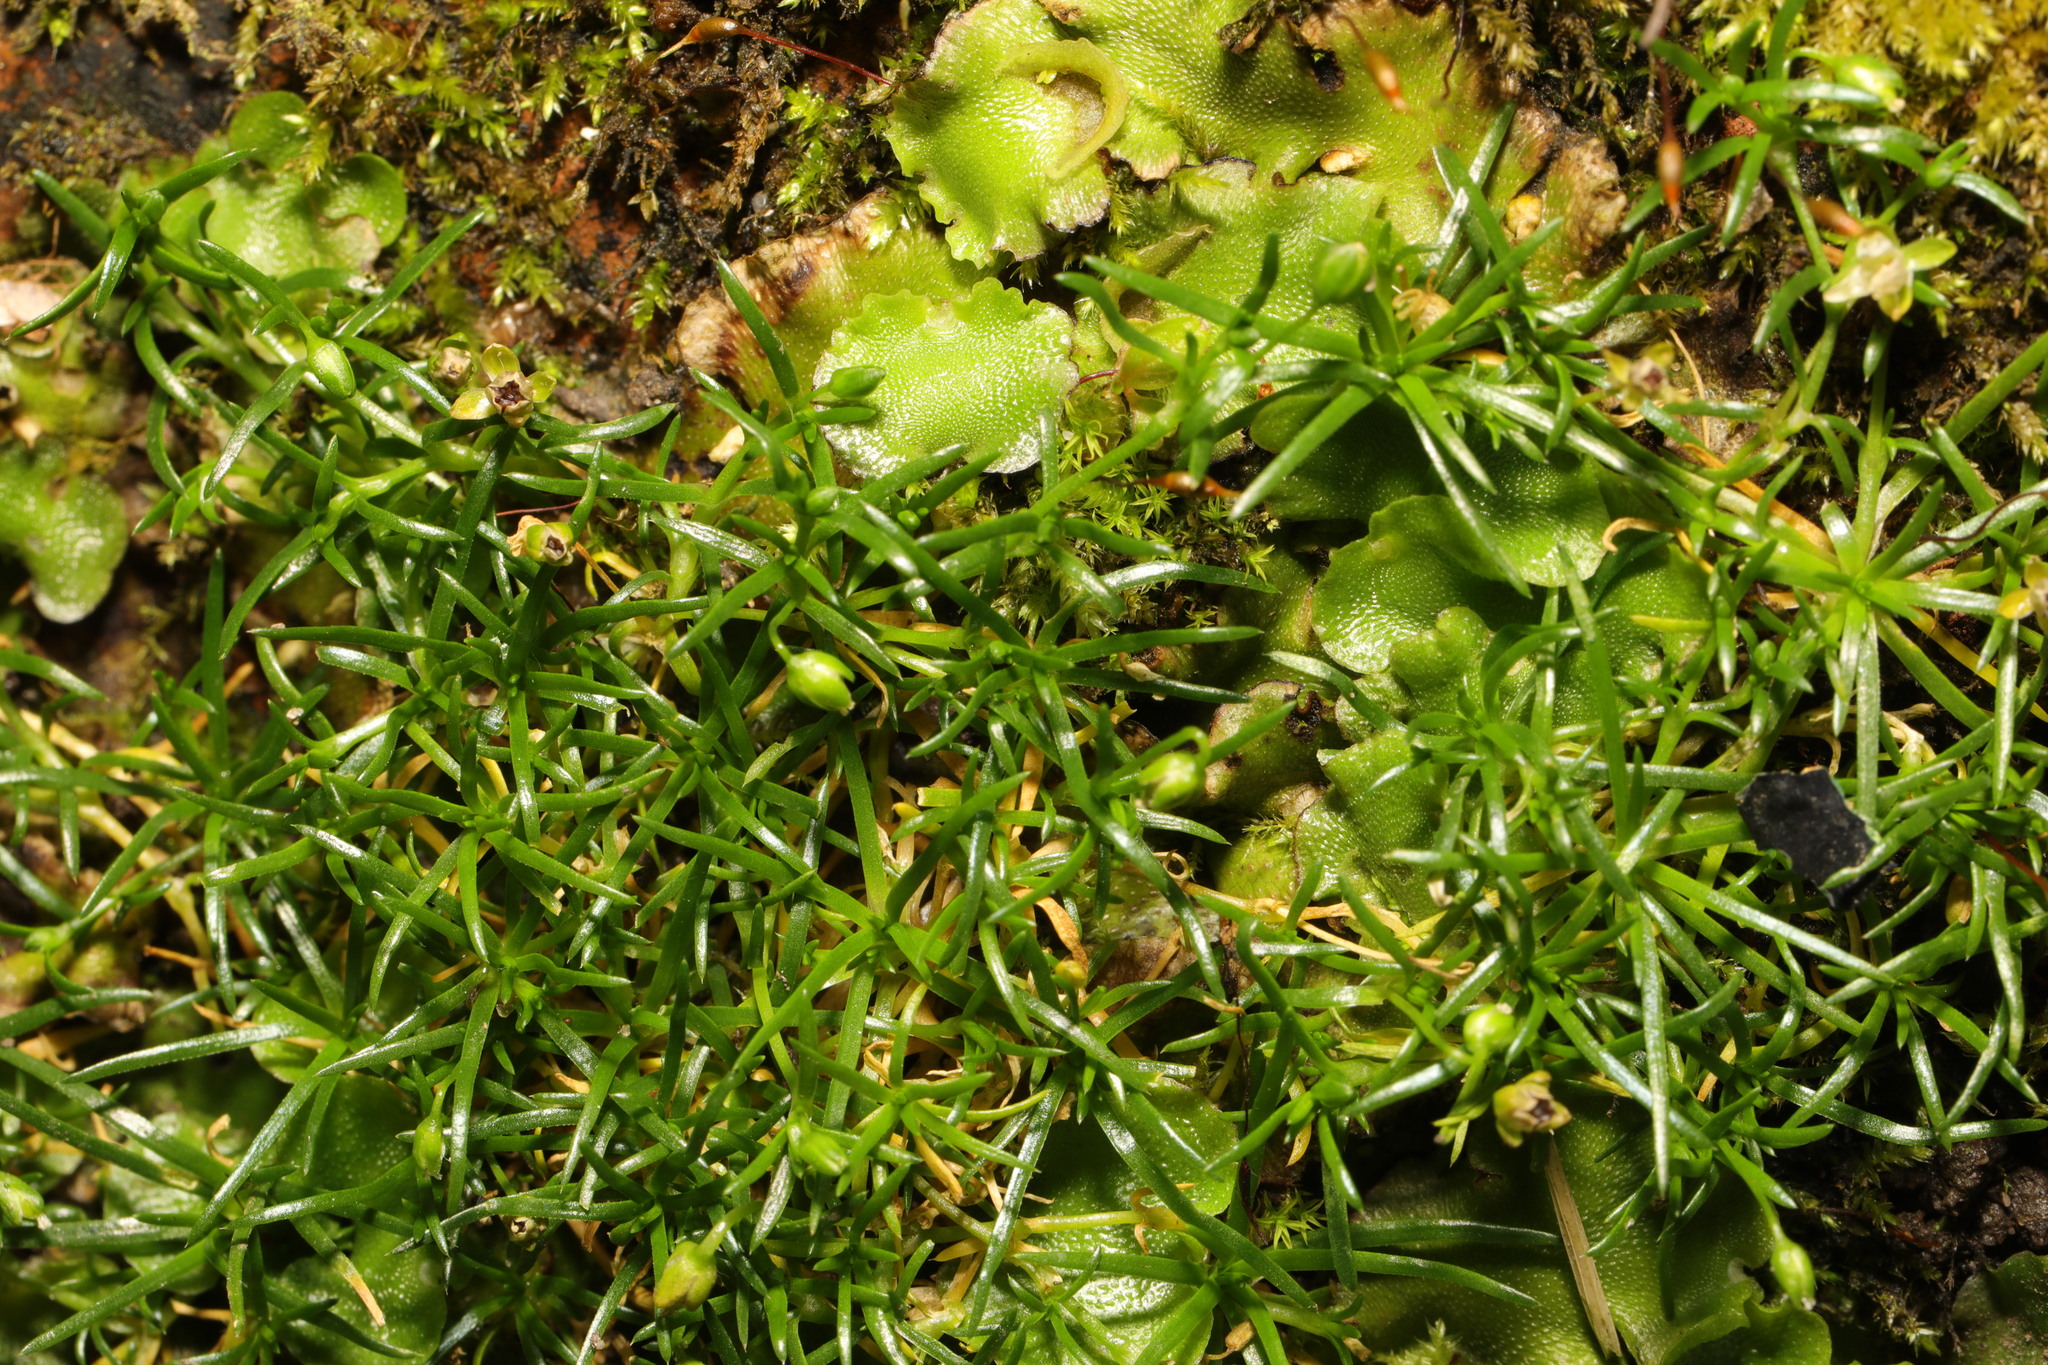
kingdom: Plantae
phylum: Tracheophyta
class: Magnoliopsida
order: Caryophyllales
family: Caryophyllaceae
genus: Sagina
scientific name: Sagina procumbens
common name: Procumbent pearlwort
